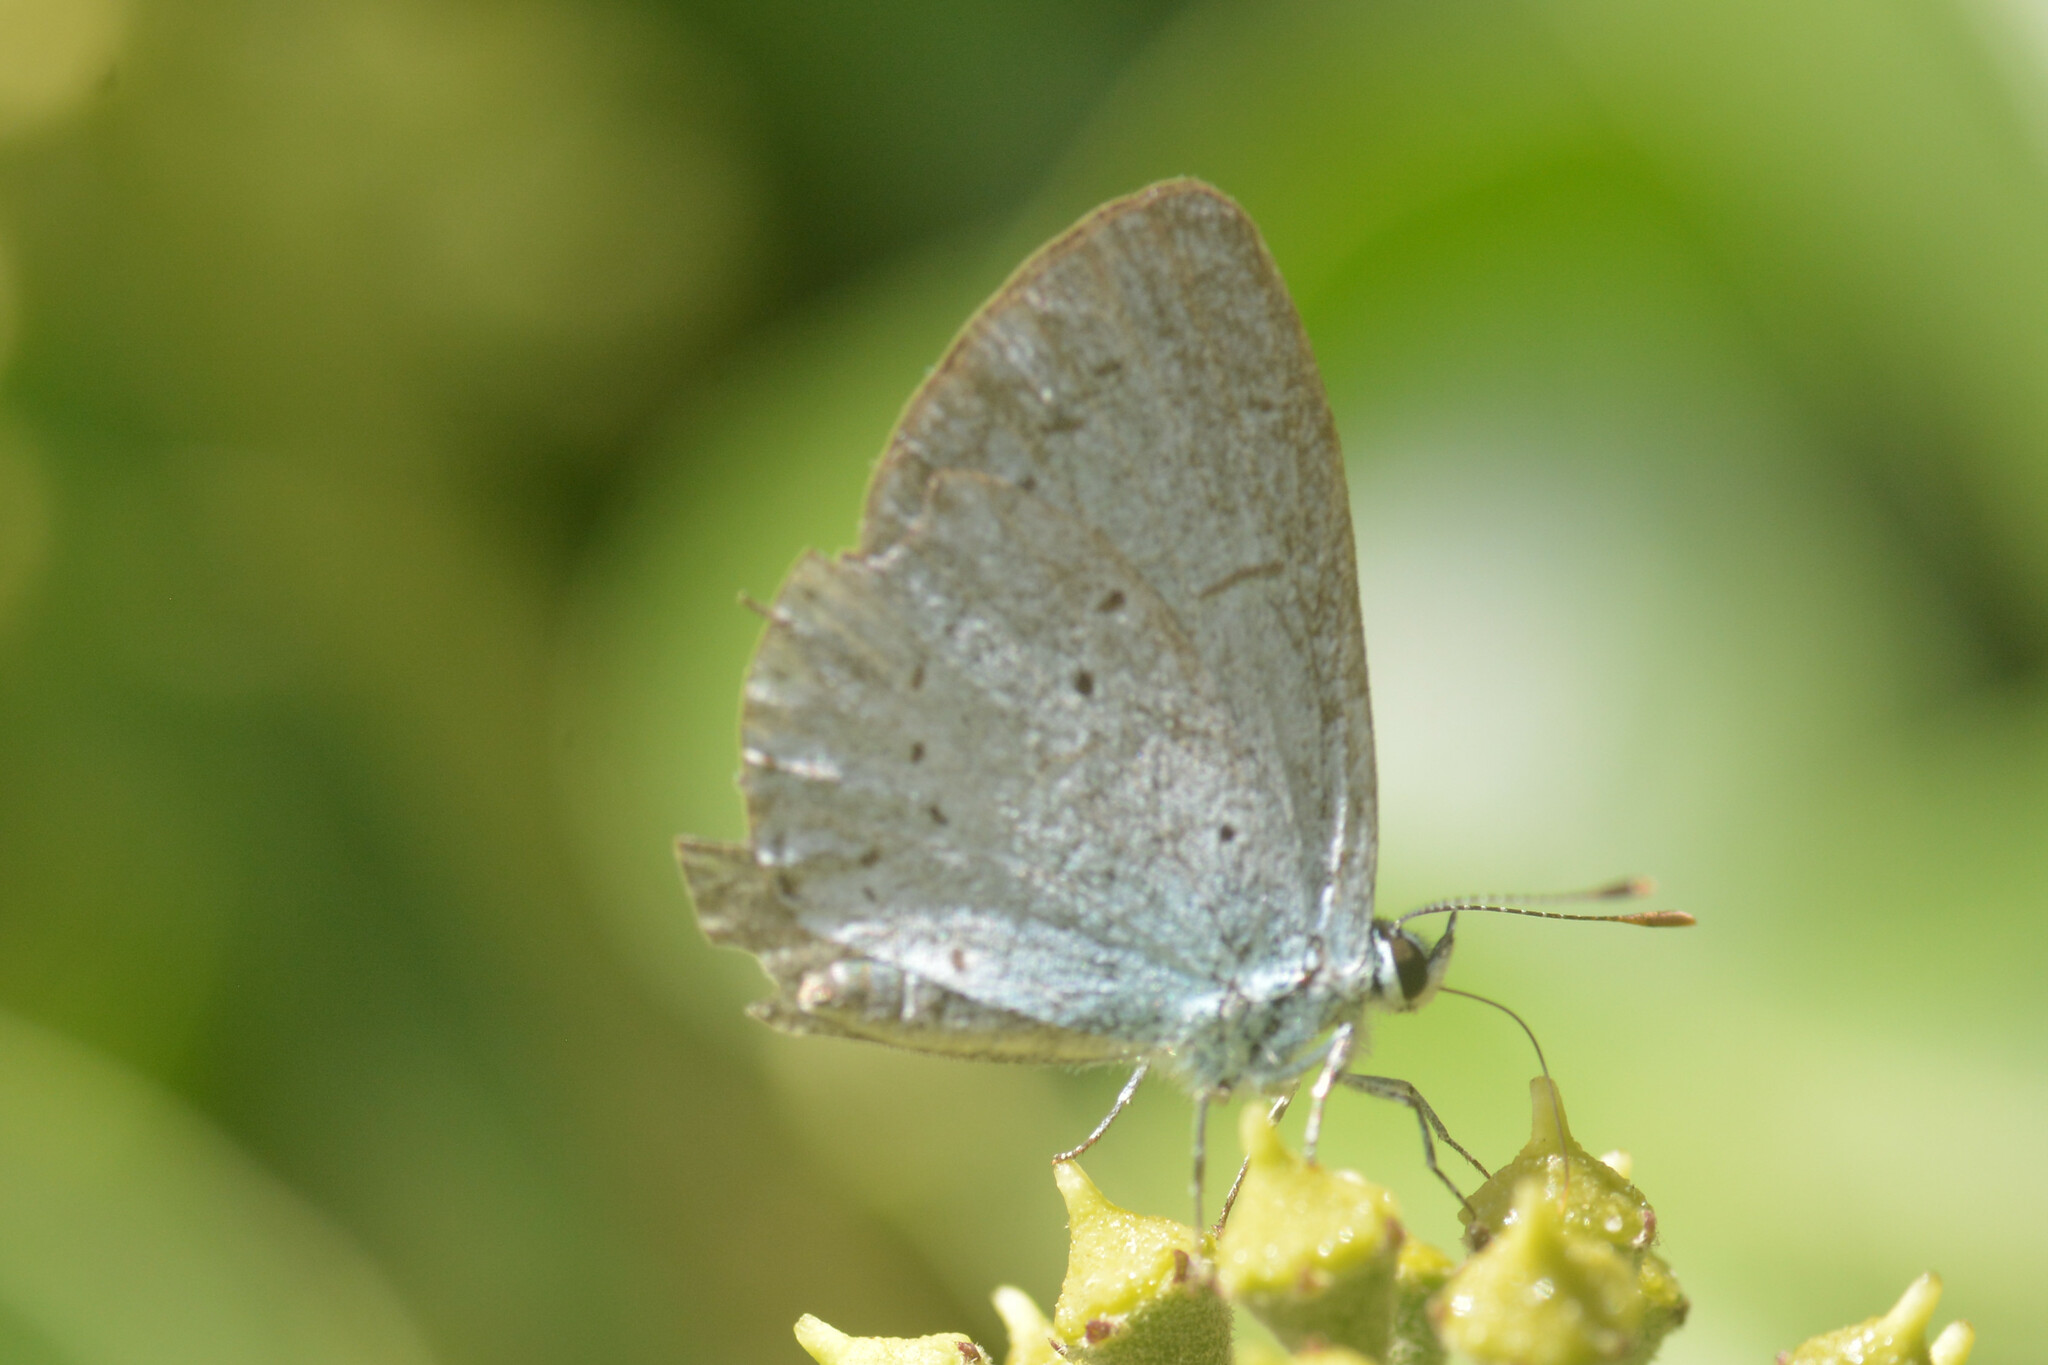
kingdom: Animalia
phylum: Arthropoda
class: Insecta
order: Lepidoptera
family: Lycaenidae
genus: Celastrina
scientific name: Celastrina argiolus
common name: Holly blue
